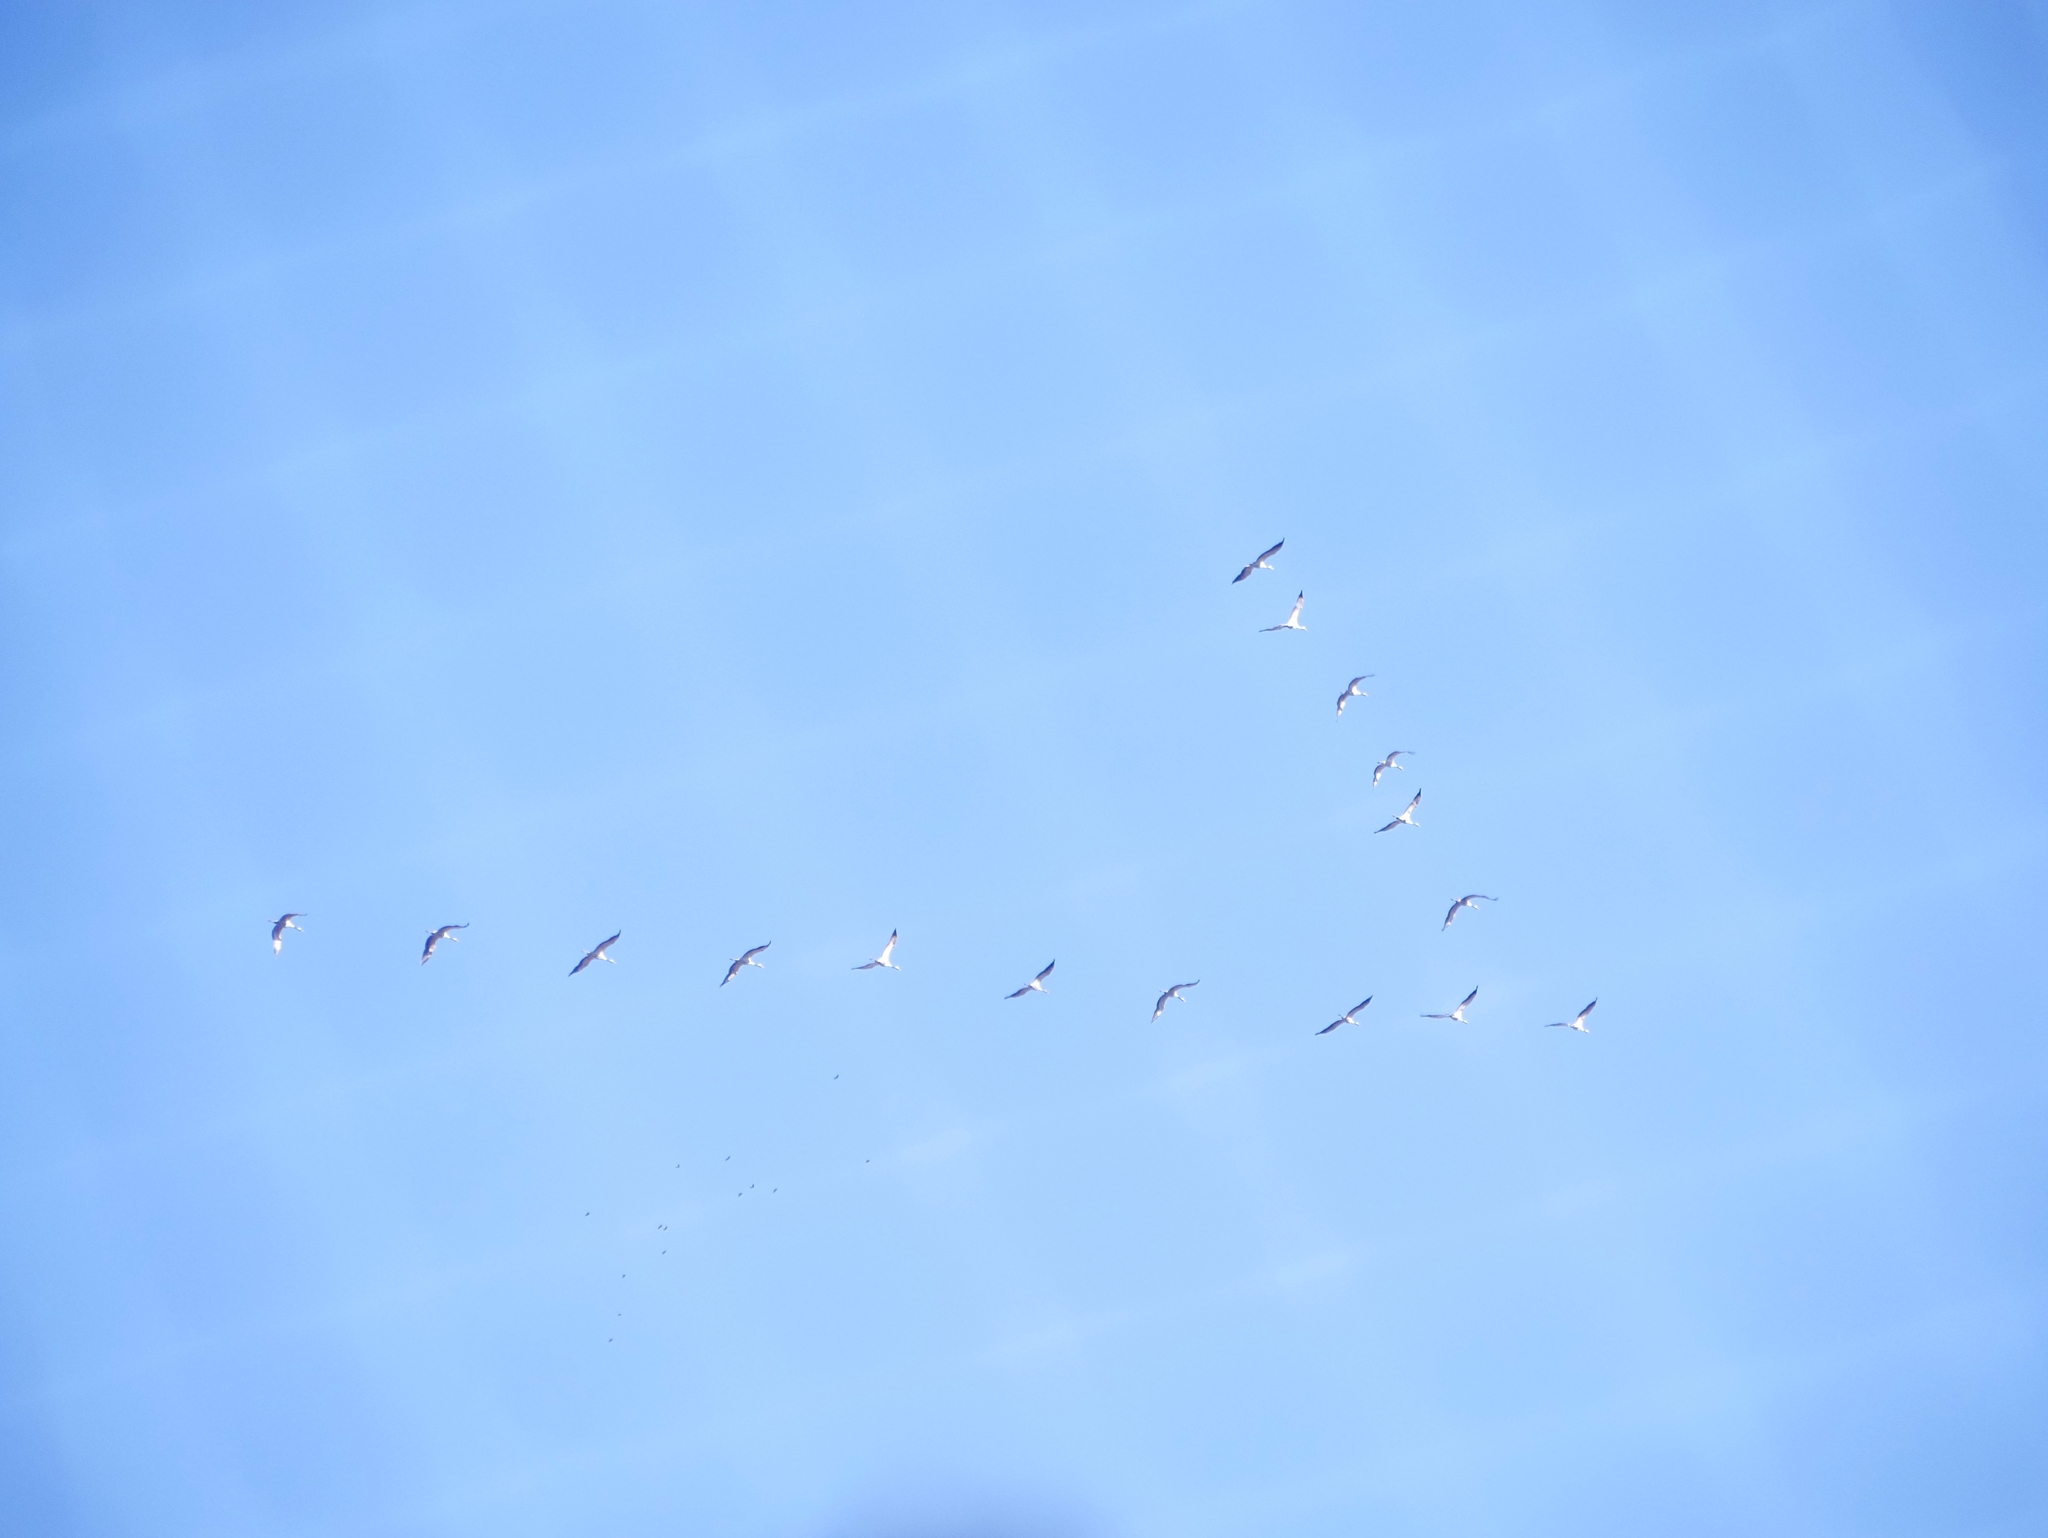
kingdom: Animalia
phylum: Chordata
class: Aves
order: Gruiformes
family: Gruidae
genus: Grus
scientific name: Grus grus
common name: Common crane
